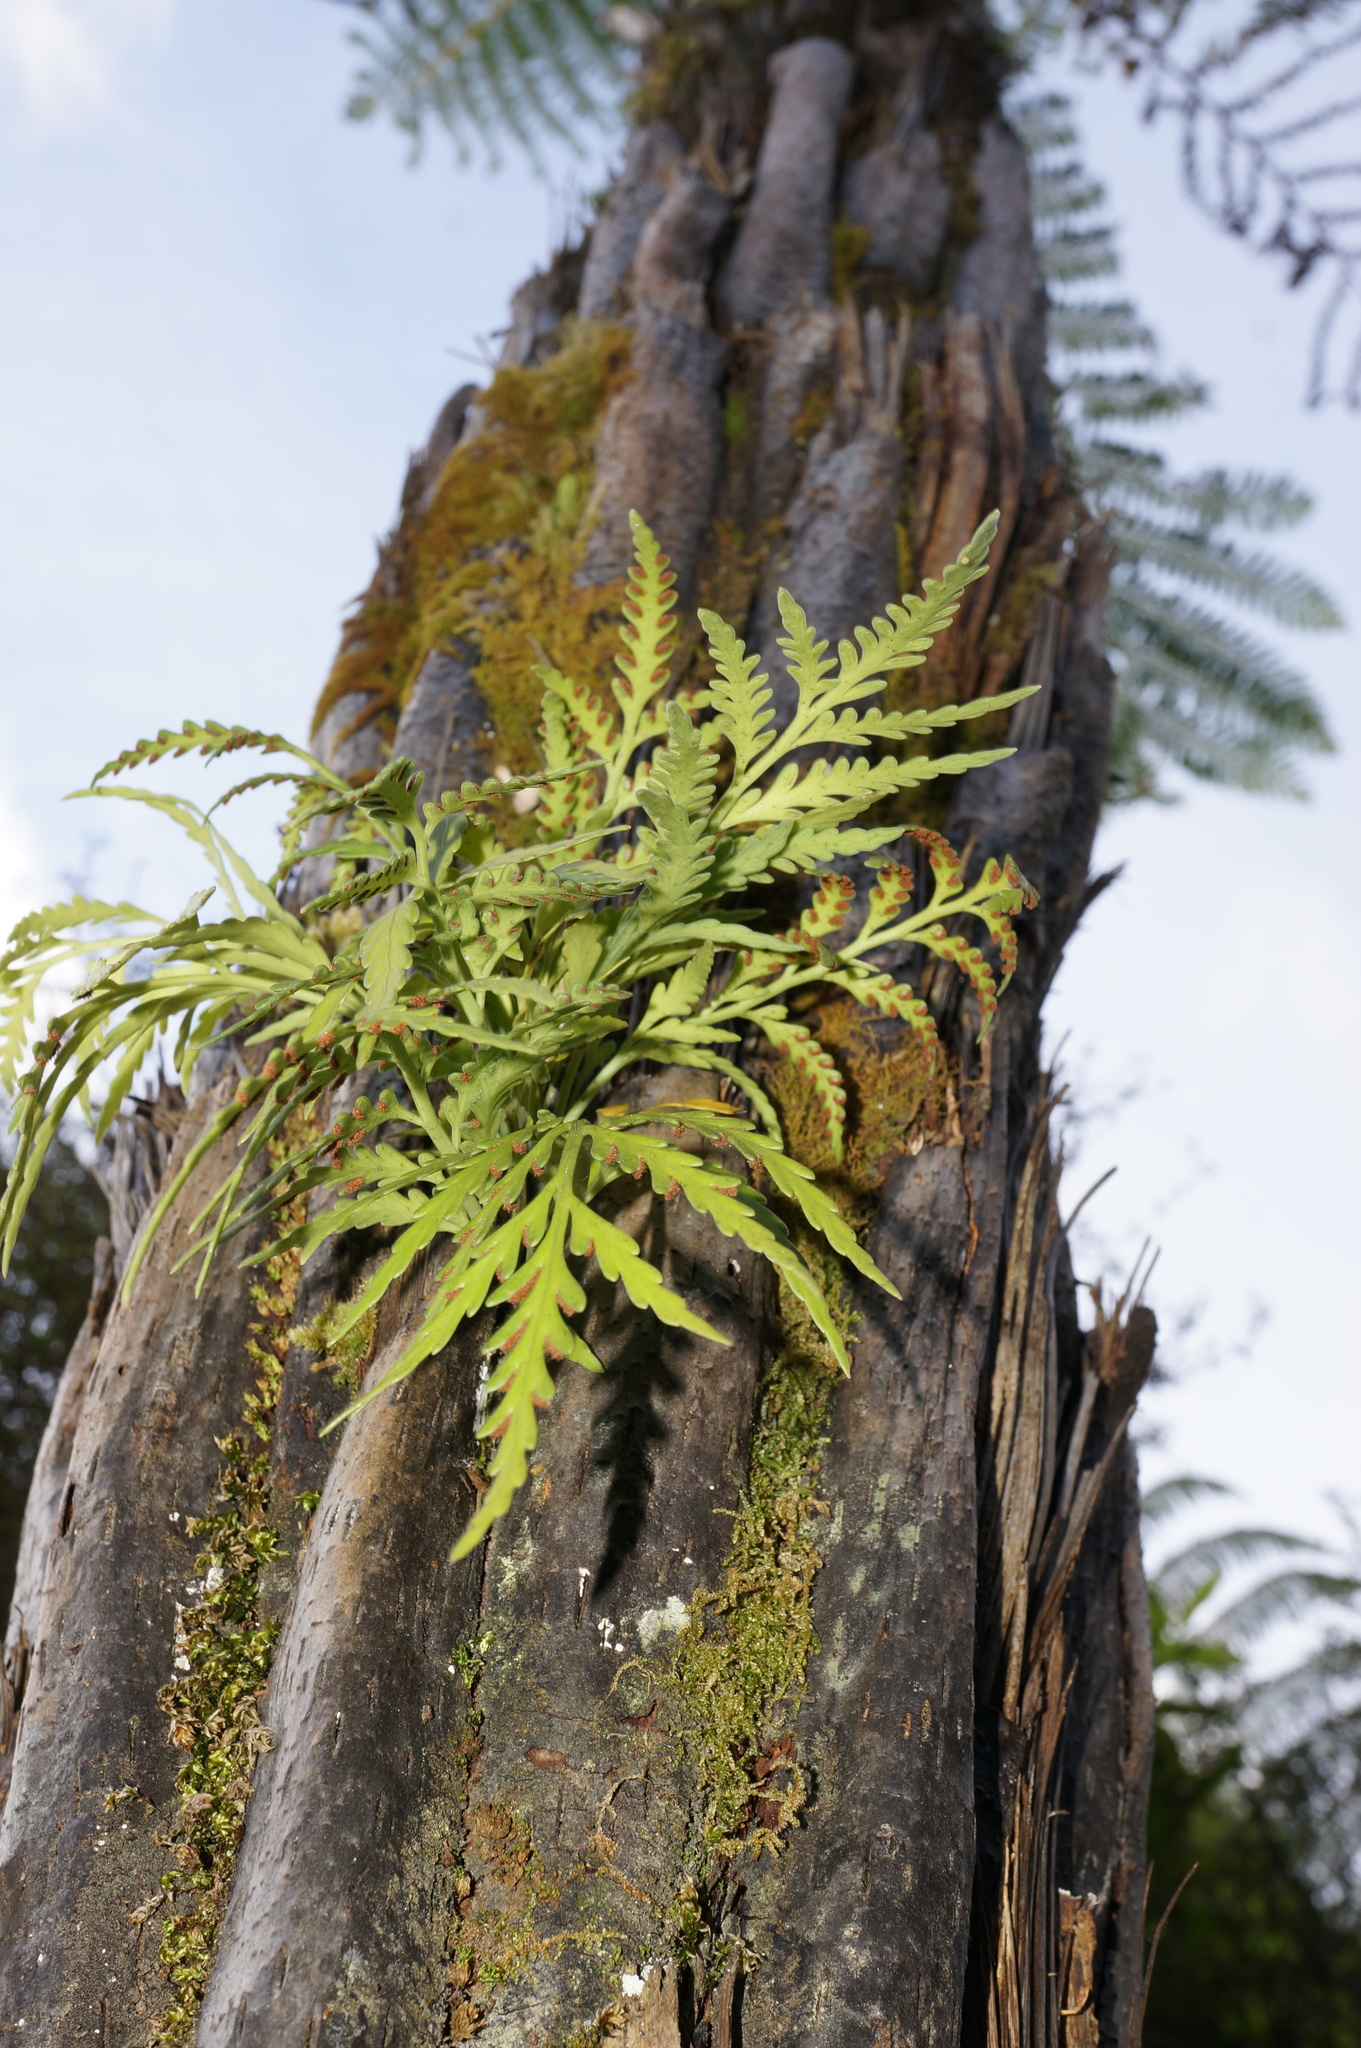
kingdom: Plantae
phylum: Tracheophyta
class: Polypodiopsida
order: Polypodiales
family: Aspleniaceae
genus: Asplenium
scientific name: Asplenium flaccidum
